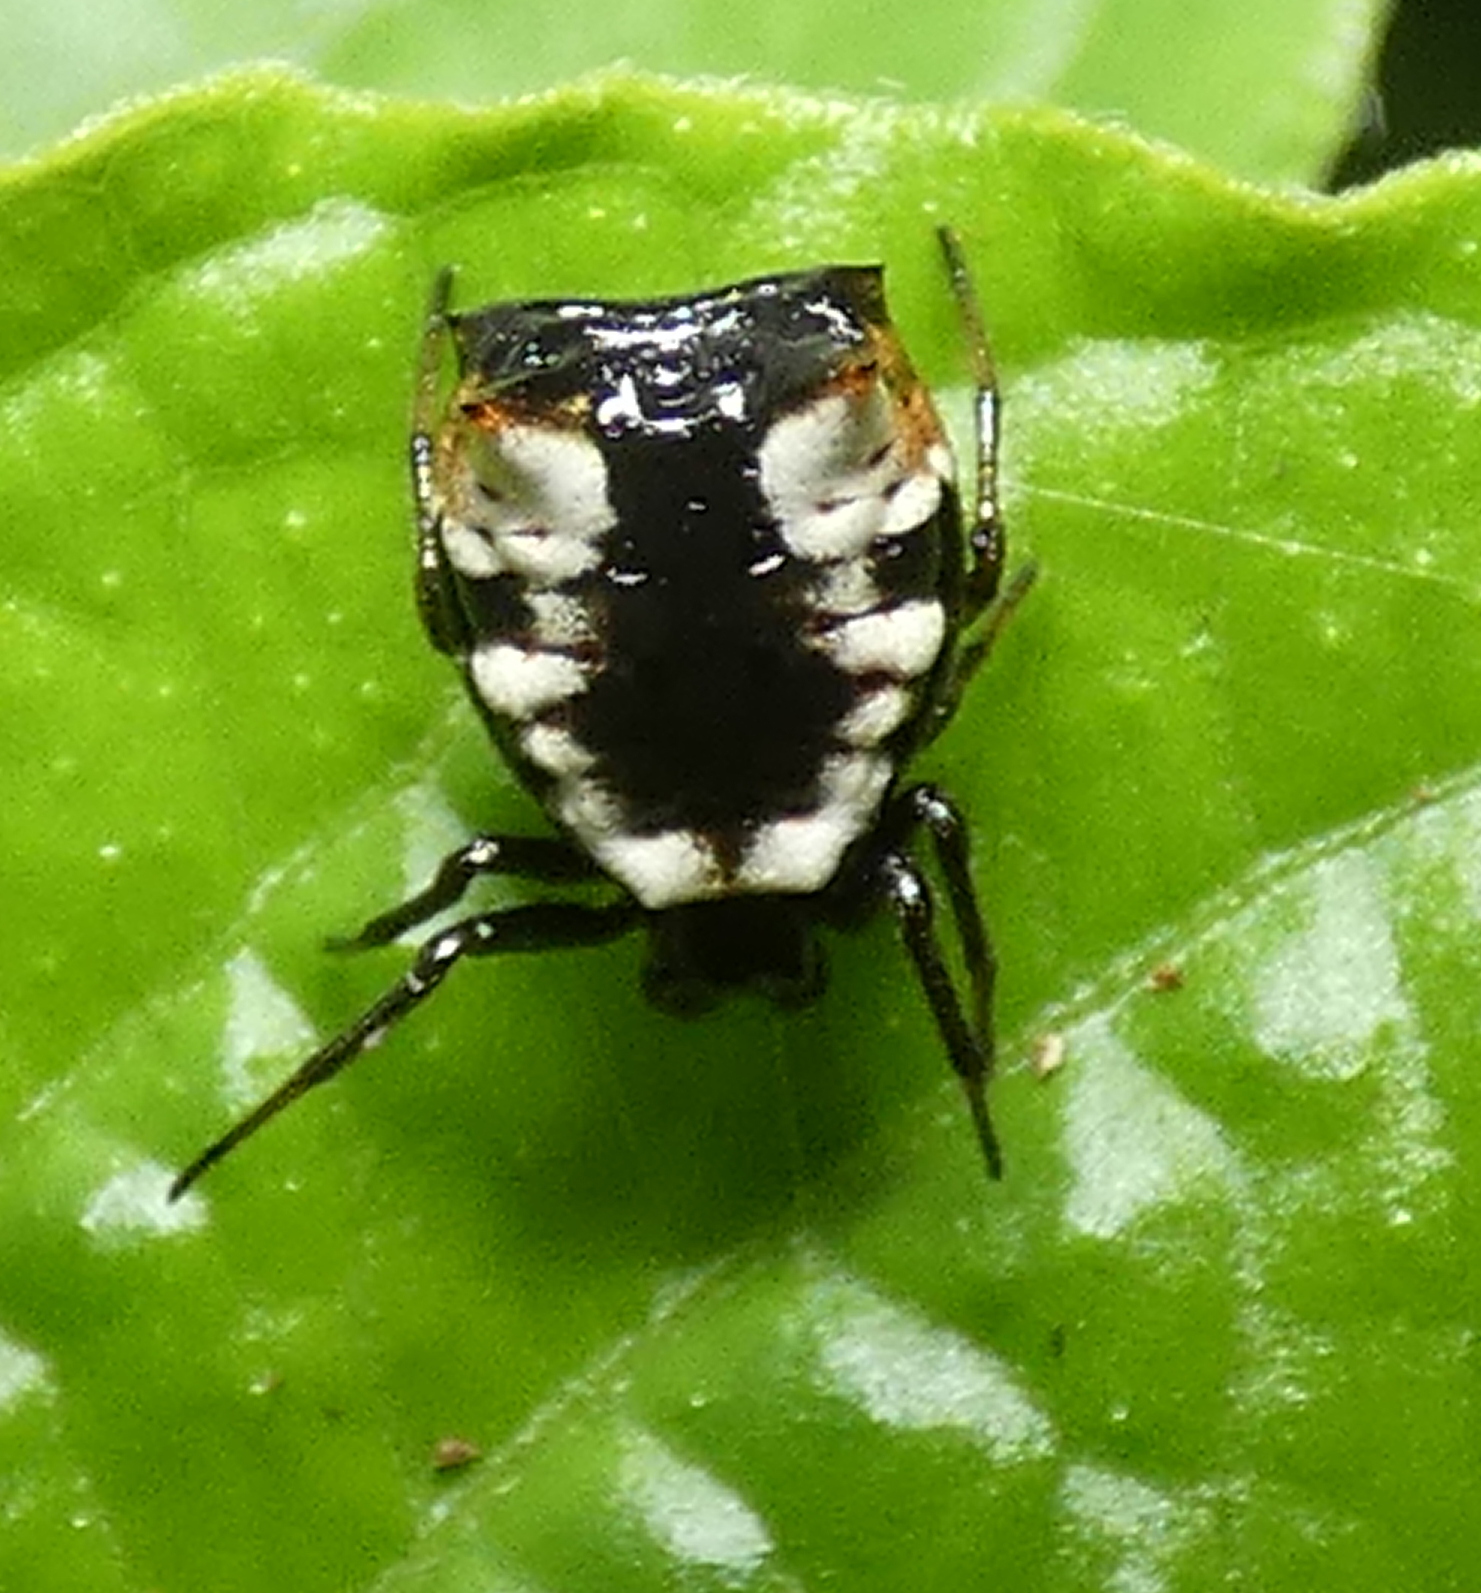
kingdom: Animalia
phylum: Arthropoda
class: Arachnida
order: Araneae
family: Araneidae
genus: Micrathena
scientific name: Micrathena patruelis
